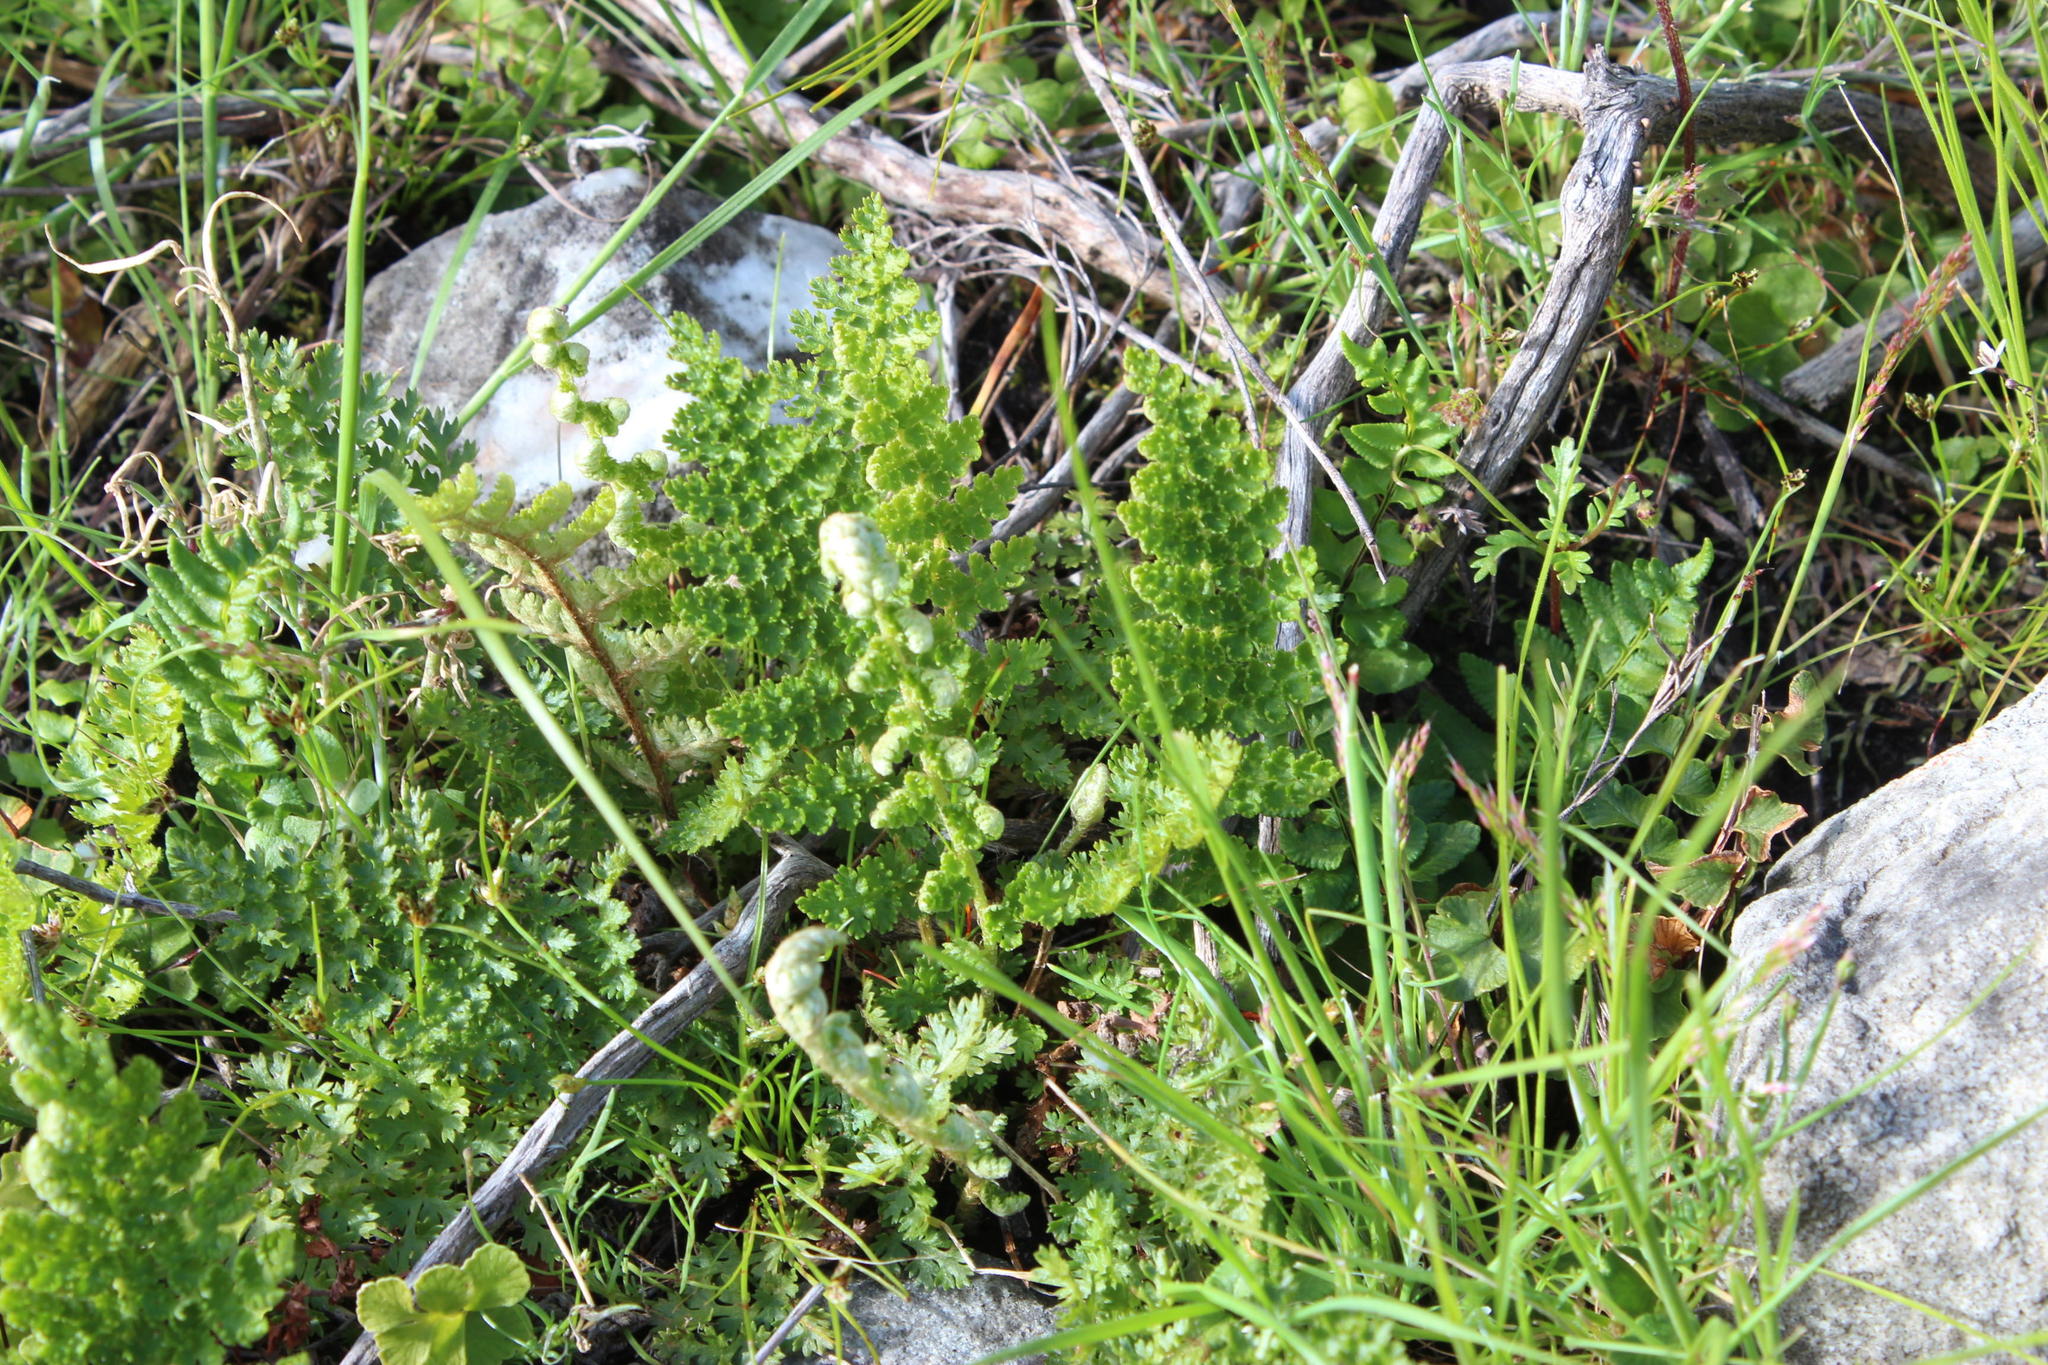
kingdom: Plantae
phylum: Tracheophyta
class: Polypodiopsida
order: Schizaeales
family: Anemiaceae
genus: Anemia
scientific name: Anemia caffrorum
